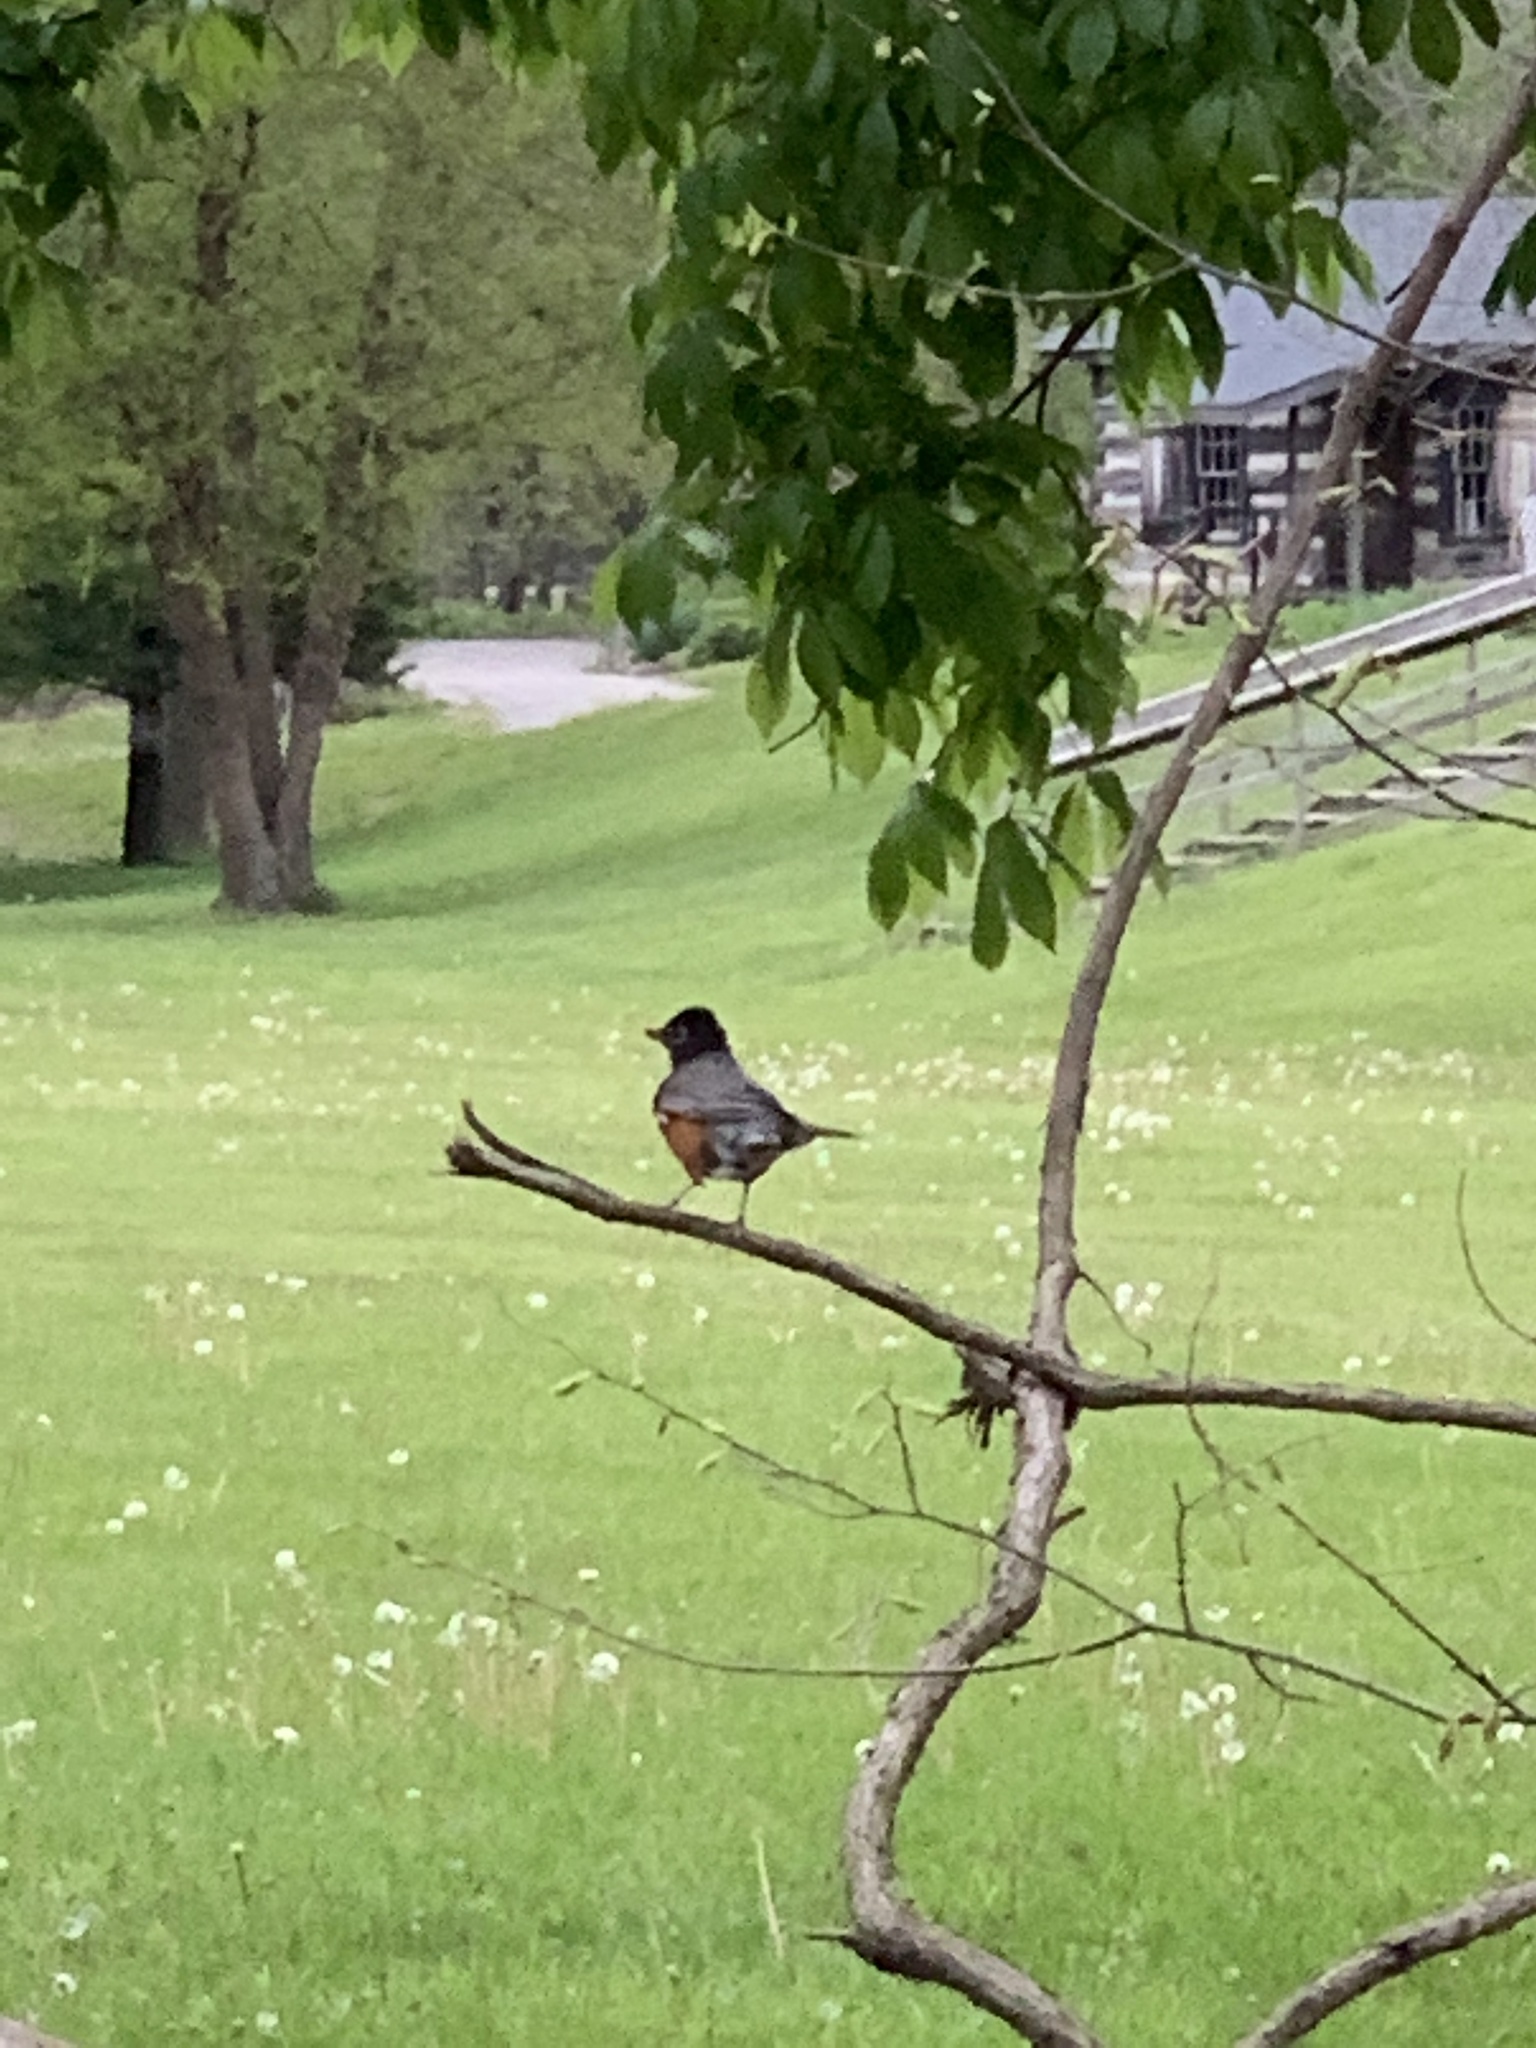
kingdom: Animalia
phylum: Chordata
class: Aves
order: Passeriformes
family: Turdidae
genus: Turdus
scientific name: Turdus migratorius
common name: American robin
